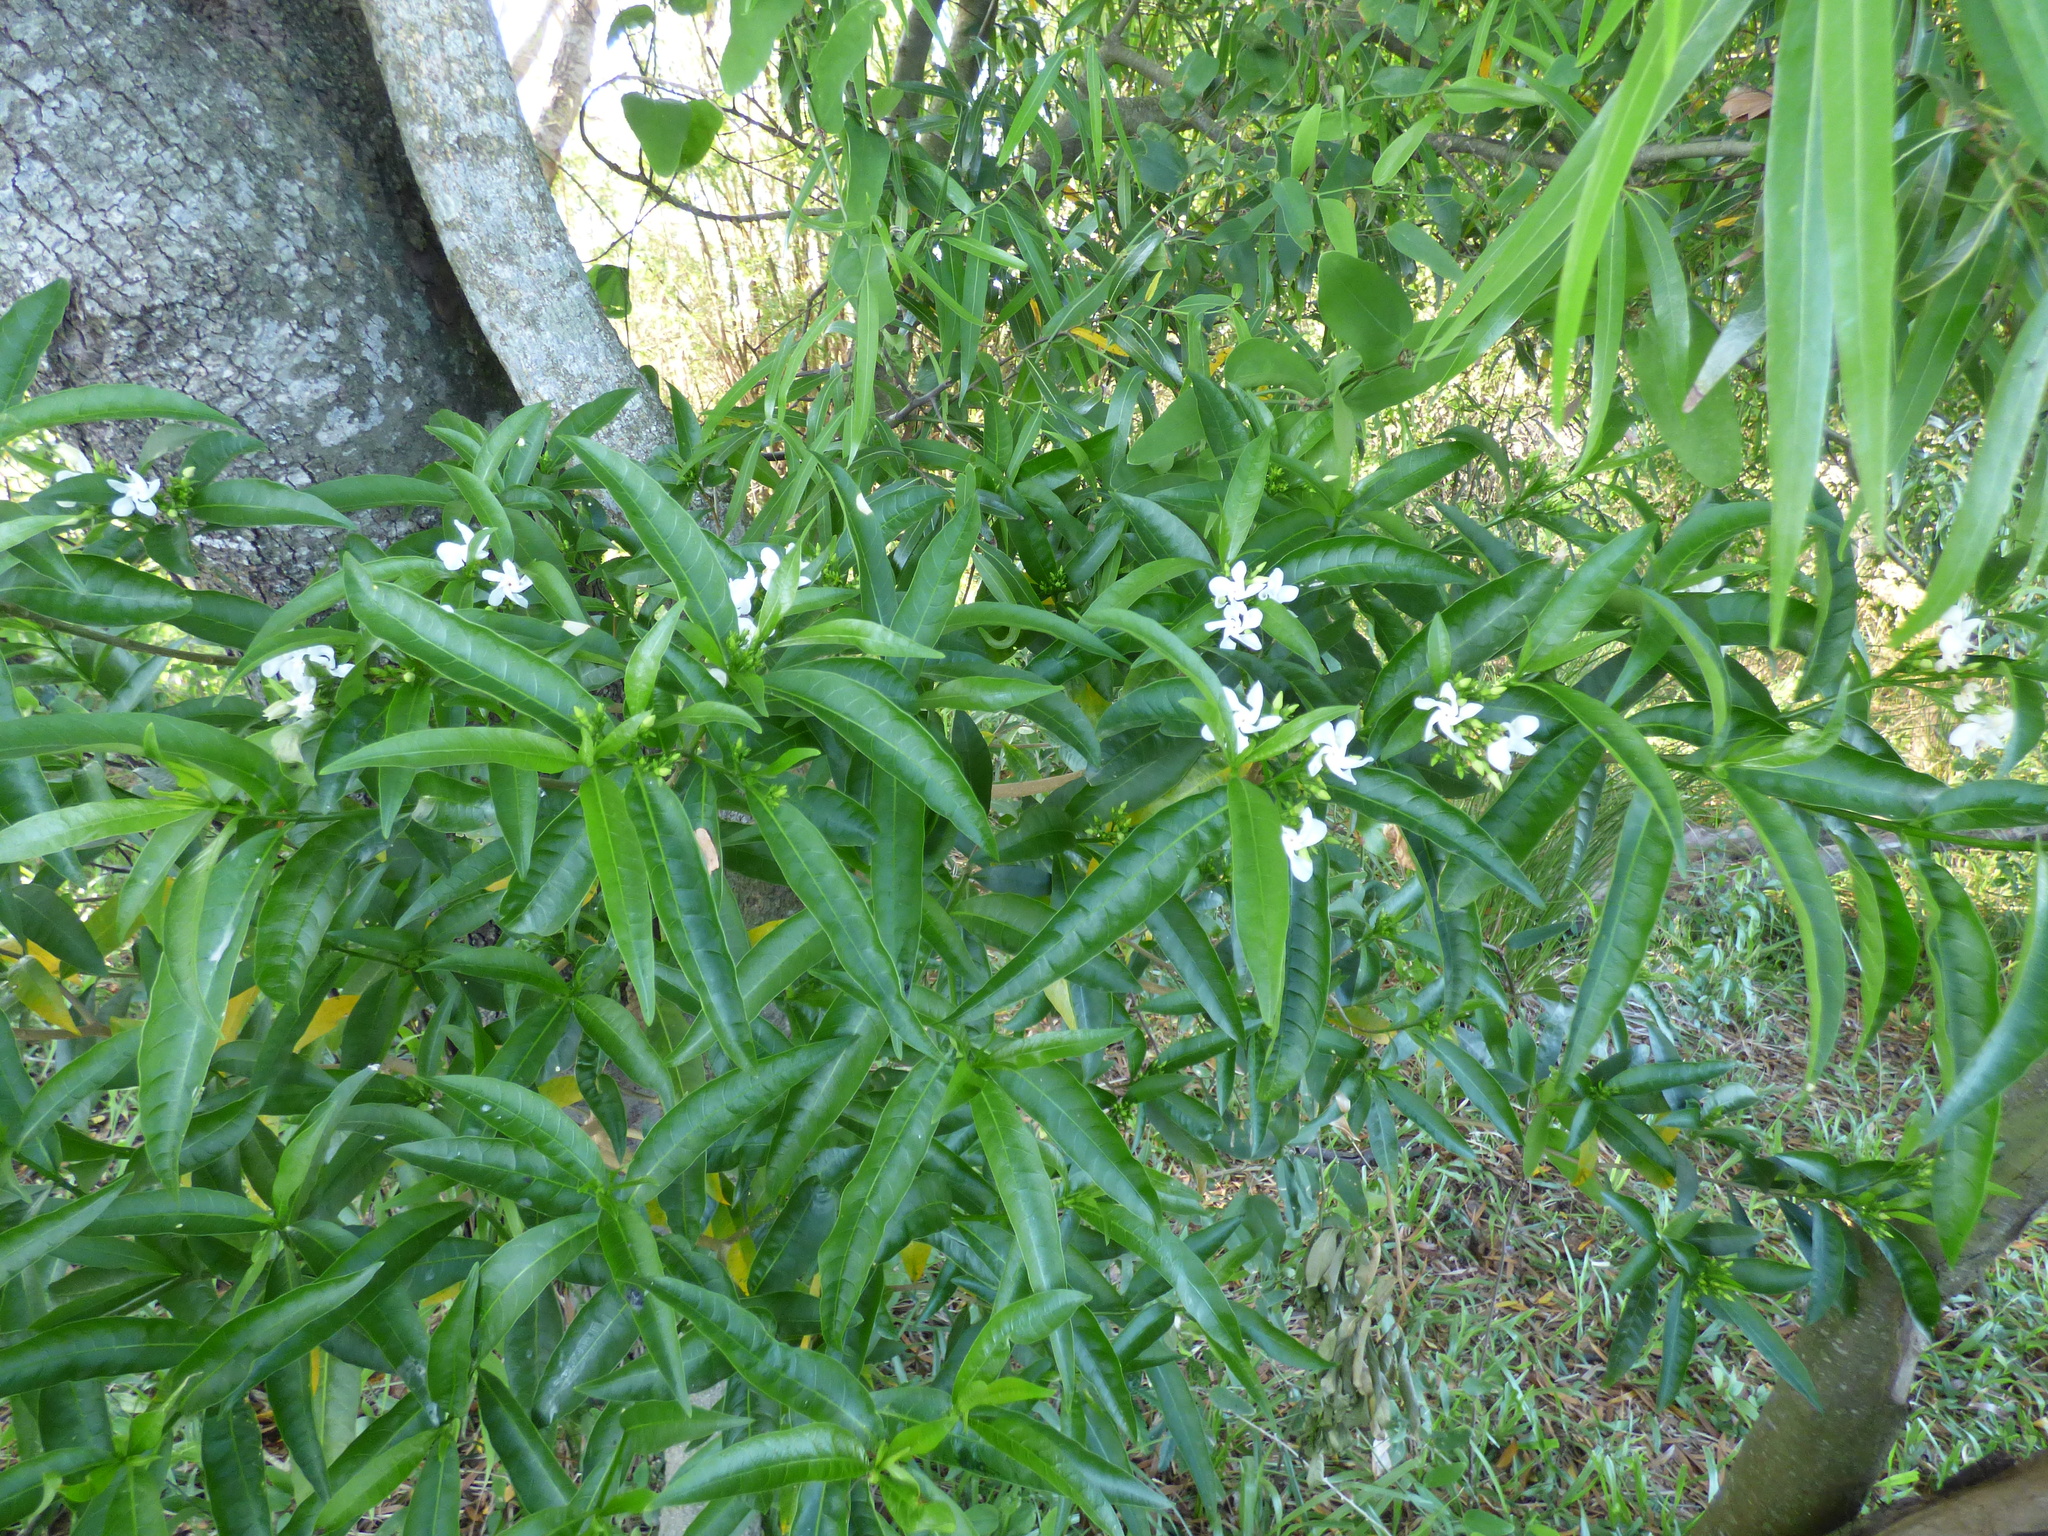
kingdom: Plantae
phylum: Tracheophyta
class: Magnoliopsida
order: Gentianales
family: Apocynaceae
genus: Tabernaemontana
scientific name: Tabernaemontana catharinensis
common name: Pinwheel-flower
